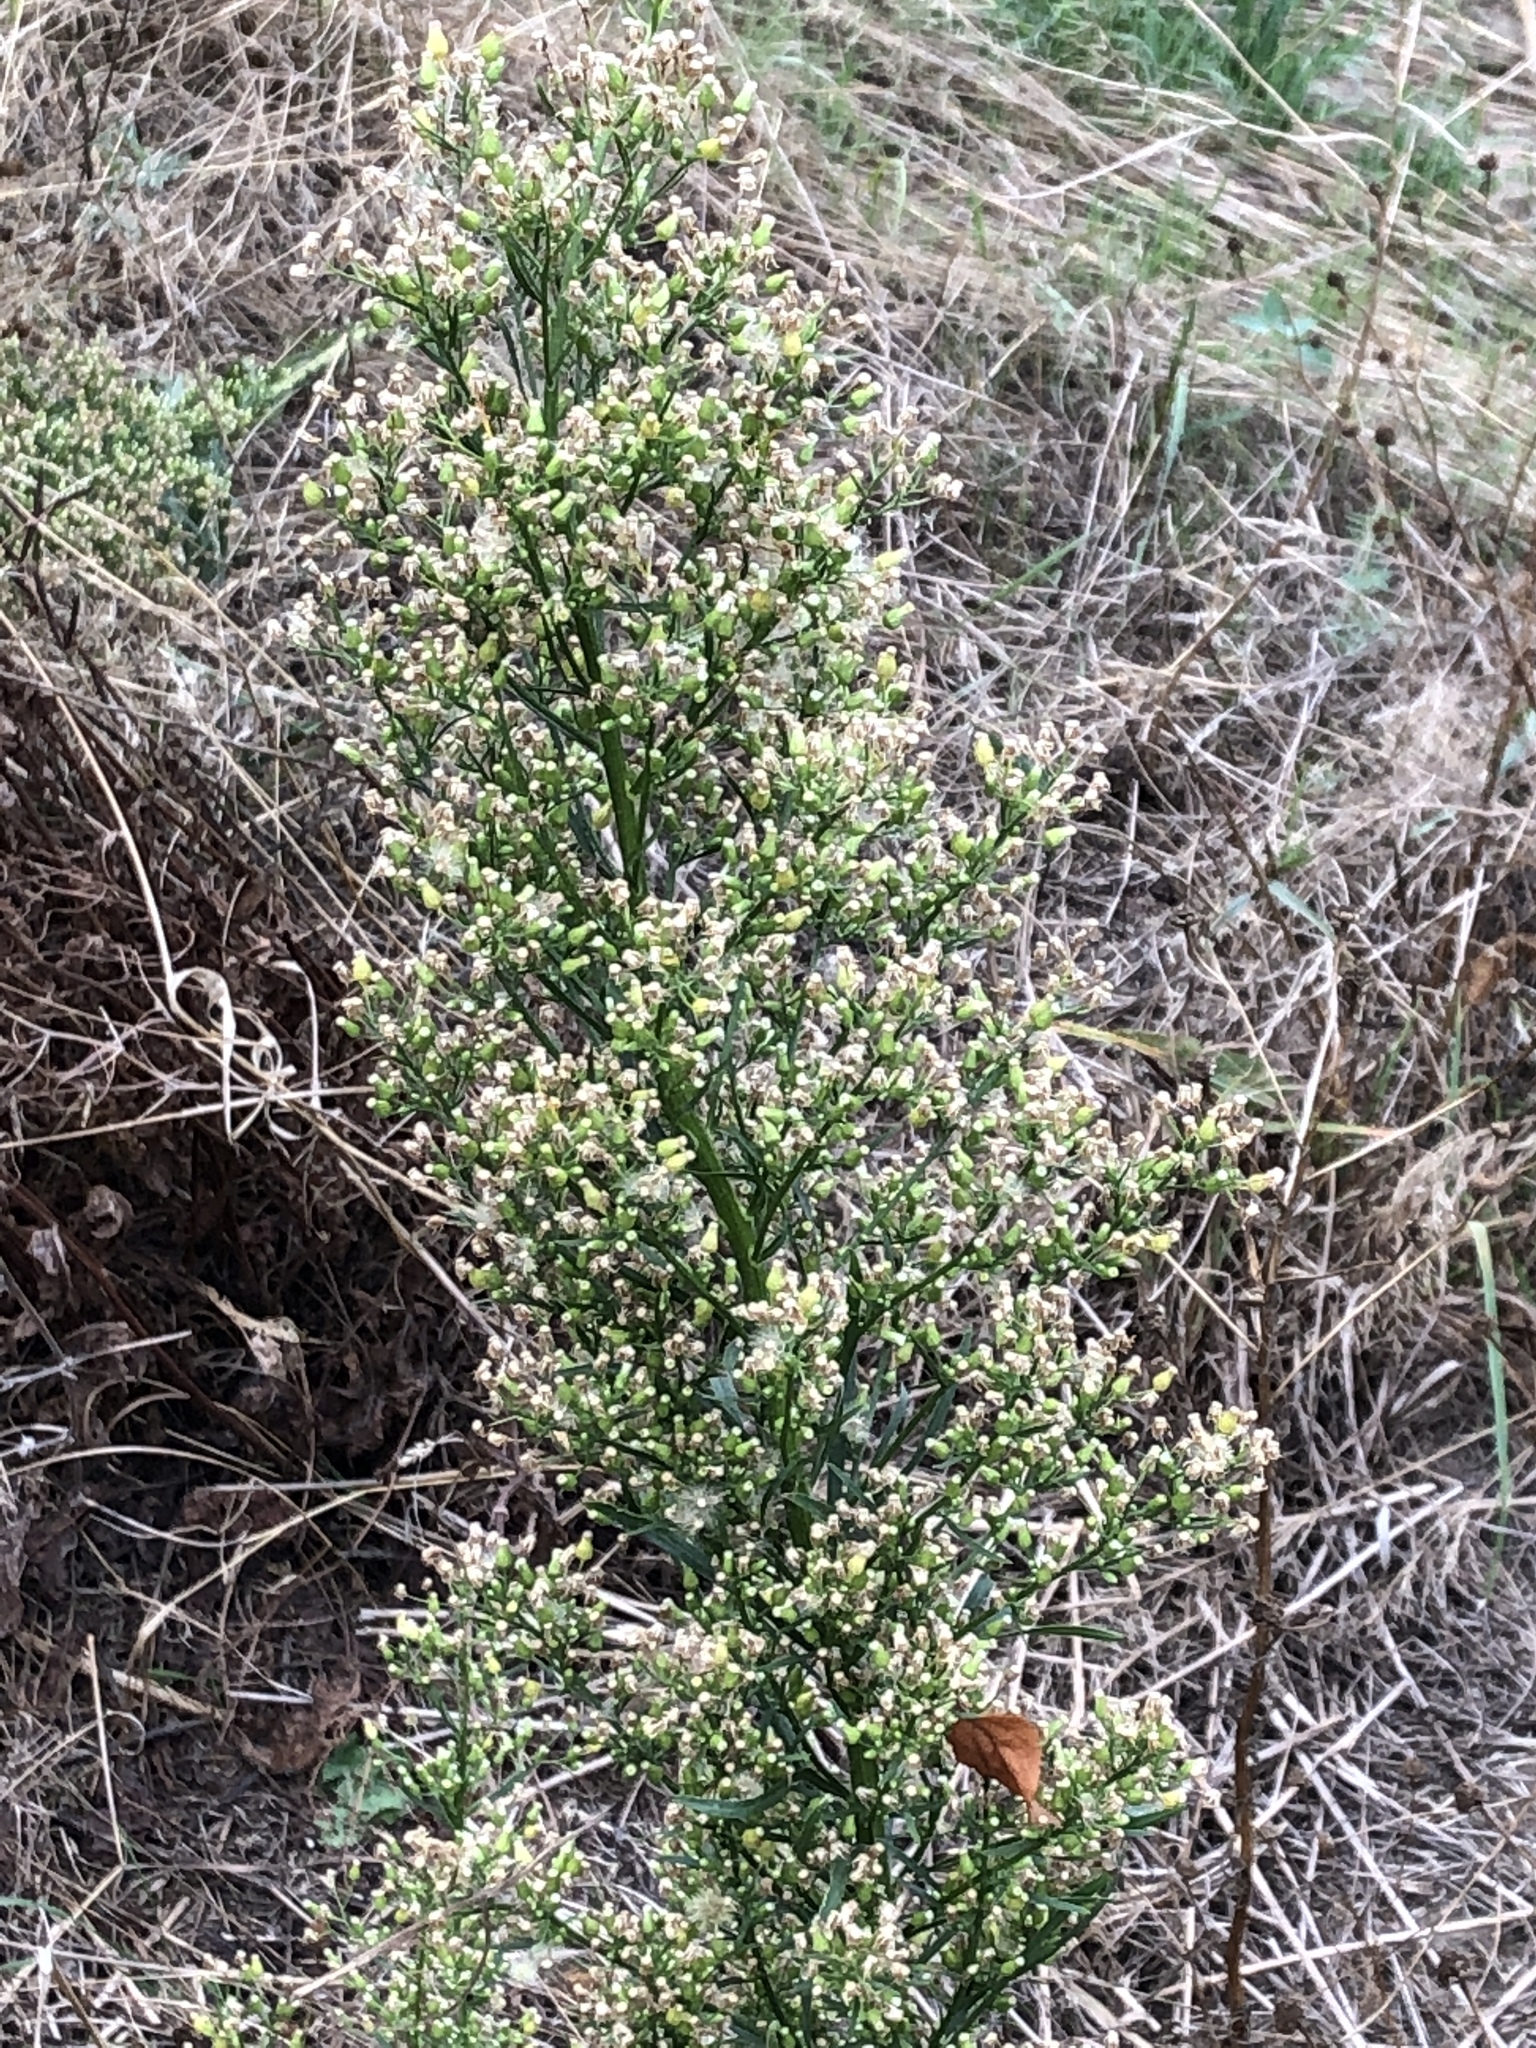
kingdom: Plantae
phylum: Tracheophyta
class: Magnoliopsida
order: Asterales
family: Asteraceae
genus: Erigeron
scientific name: Erigeron canadensis
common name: Canadian fleabane
